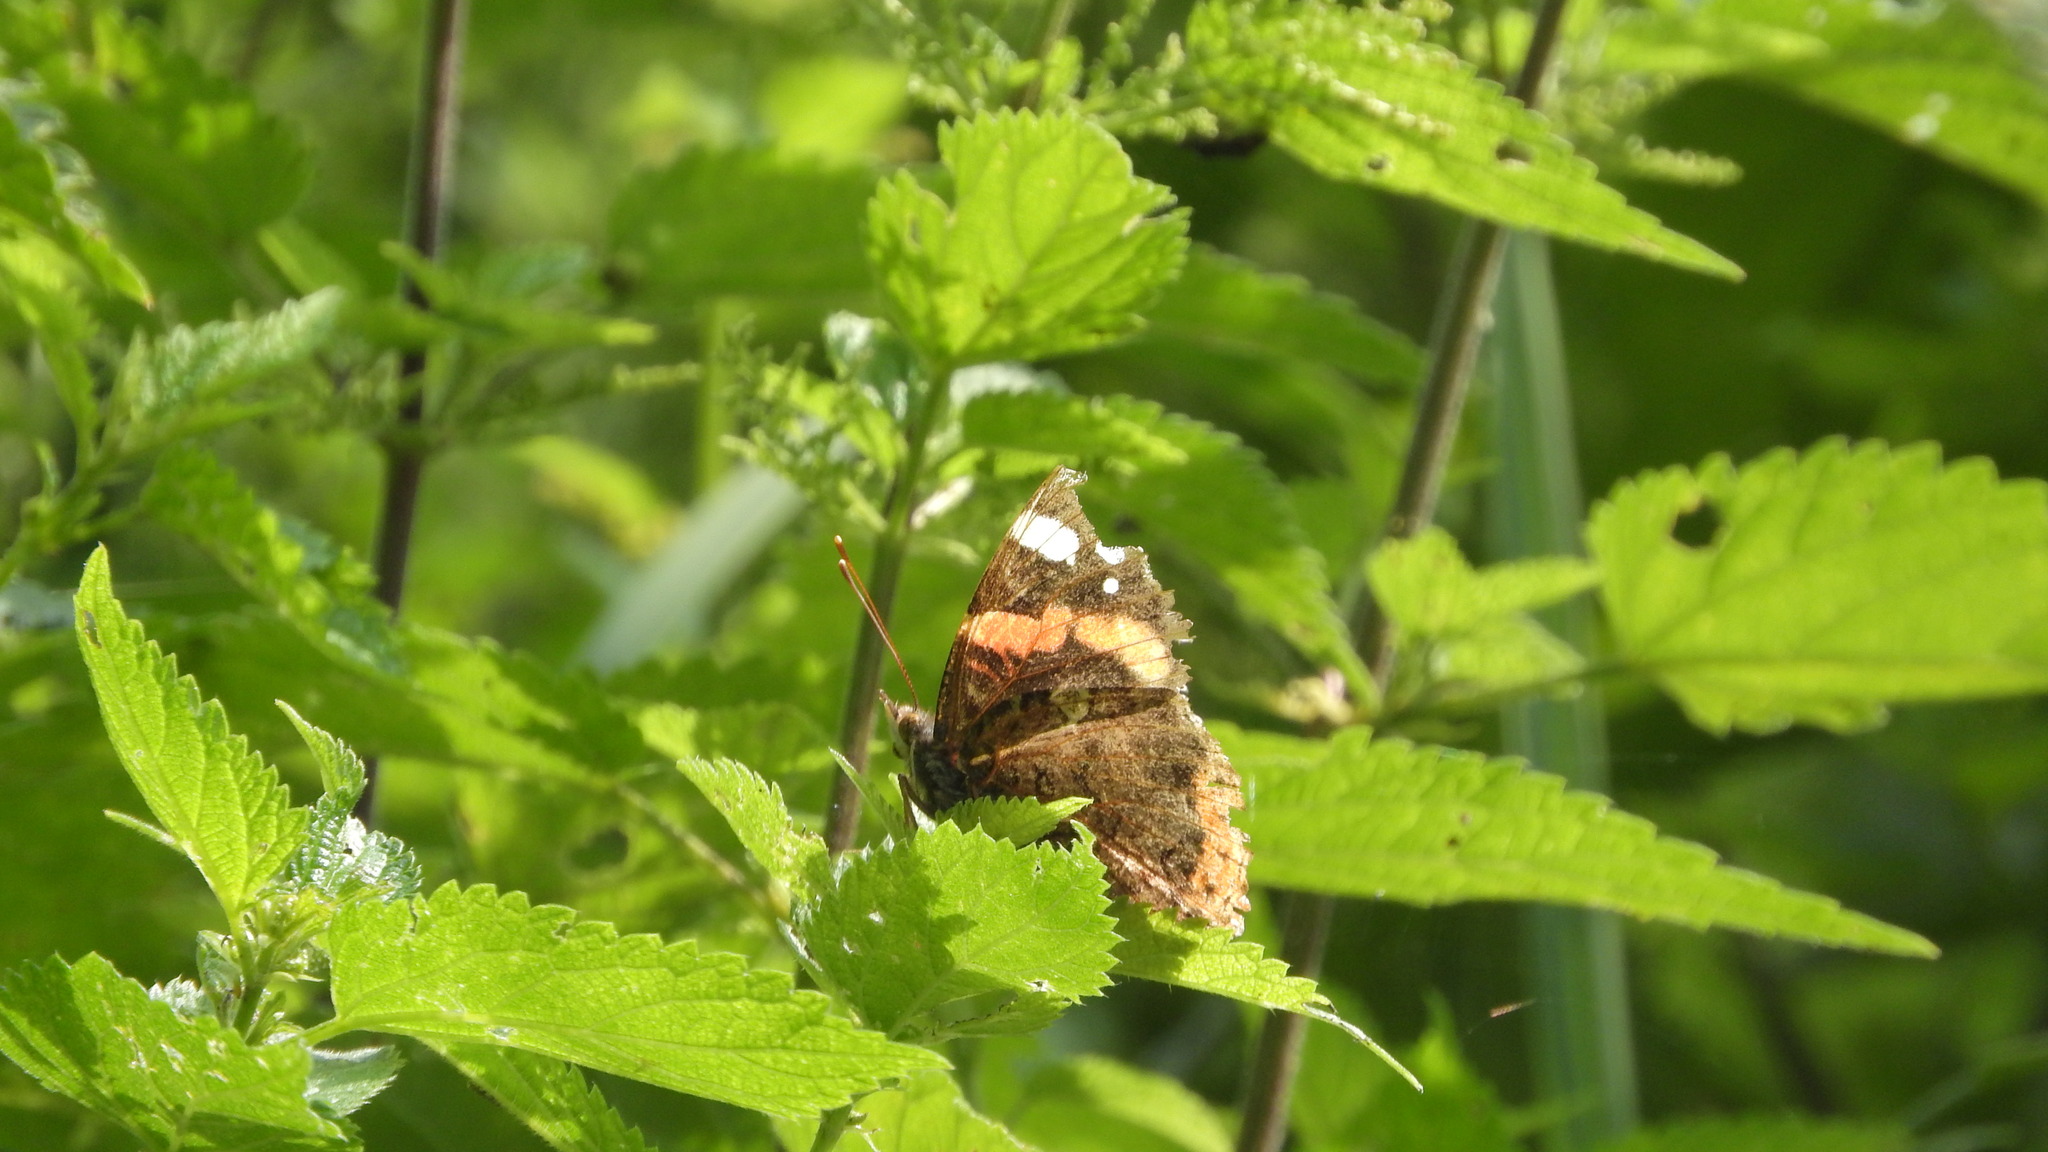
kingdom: Animalia
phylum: Arthropoda
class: Insecta
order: Lepidoptera
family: Nymphalidae
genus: Vanessa
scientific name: Vanessa atalanta
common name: Red admiral
